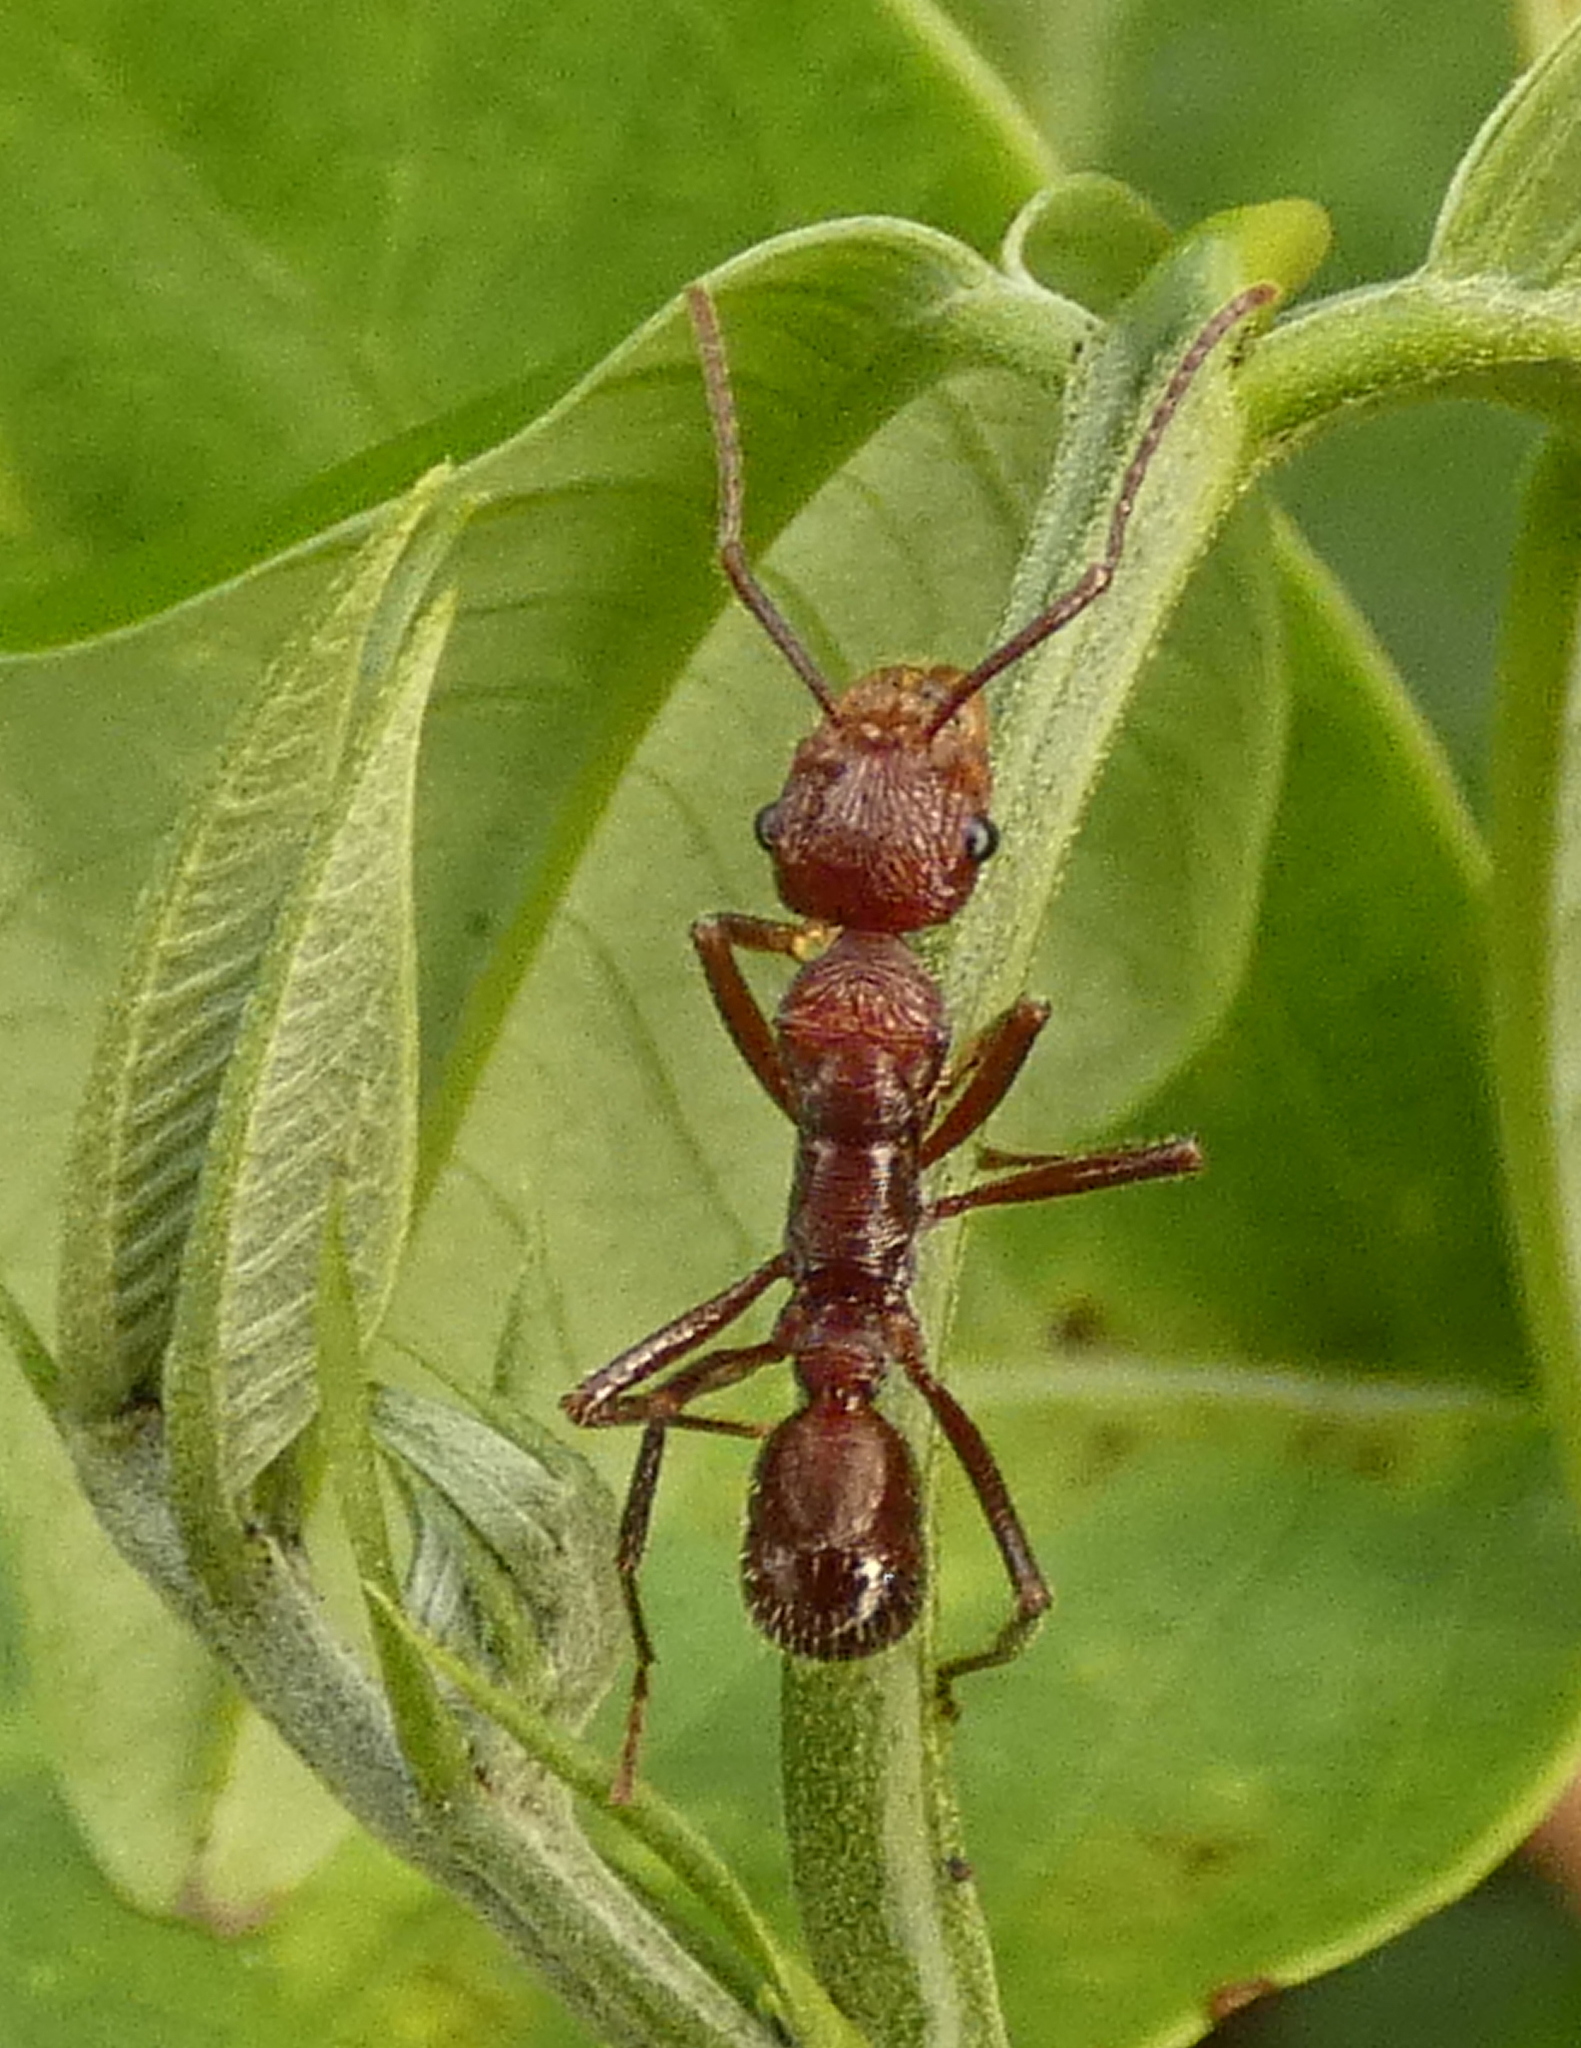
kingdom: Animalia
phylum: Arthropoda
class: Insecta
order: Hymenoptera
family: Formicidae
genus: Ectatomma
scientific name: Ectatomma tuberculatum
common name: Ant
